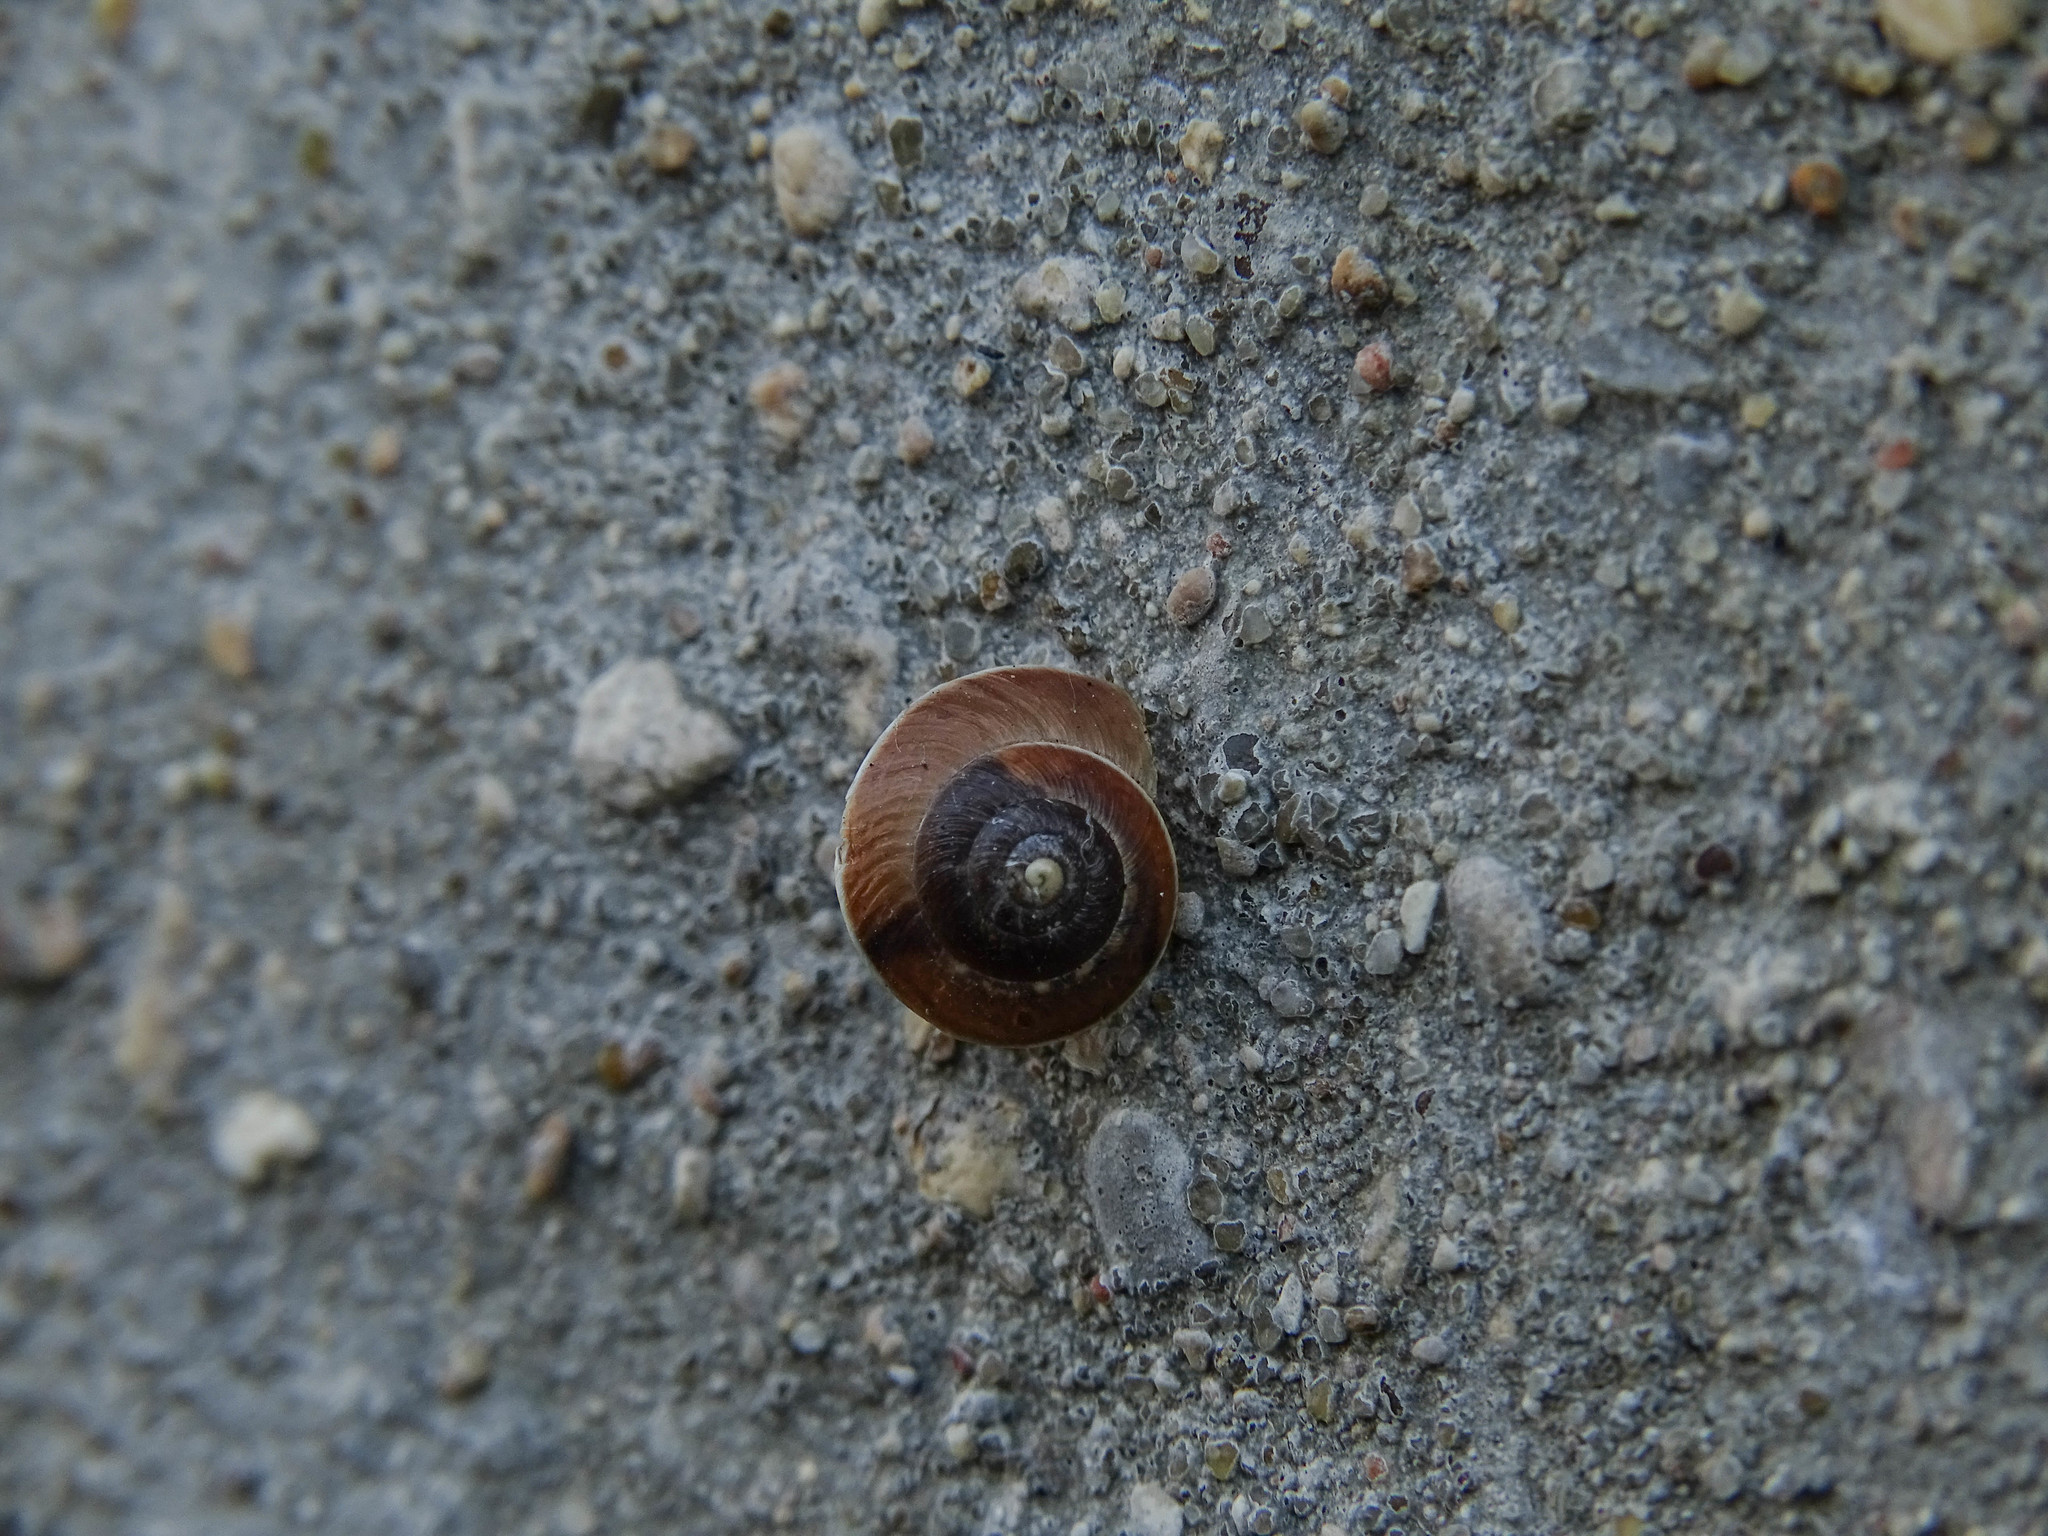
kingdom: Animalia
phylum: Mollusca
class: Gastropoda
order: Stylommatophora
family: Hygromiidae
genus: Hygromia
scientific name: Hygromia cinctella
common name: Girdled snail
